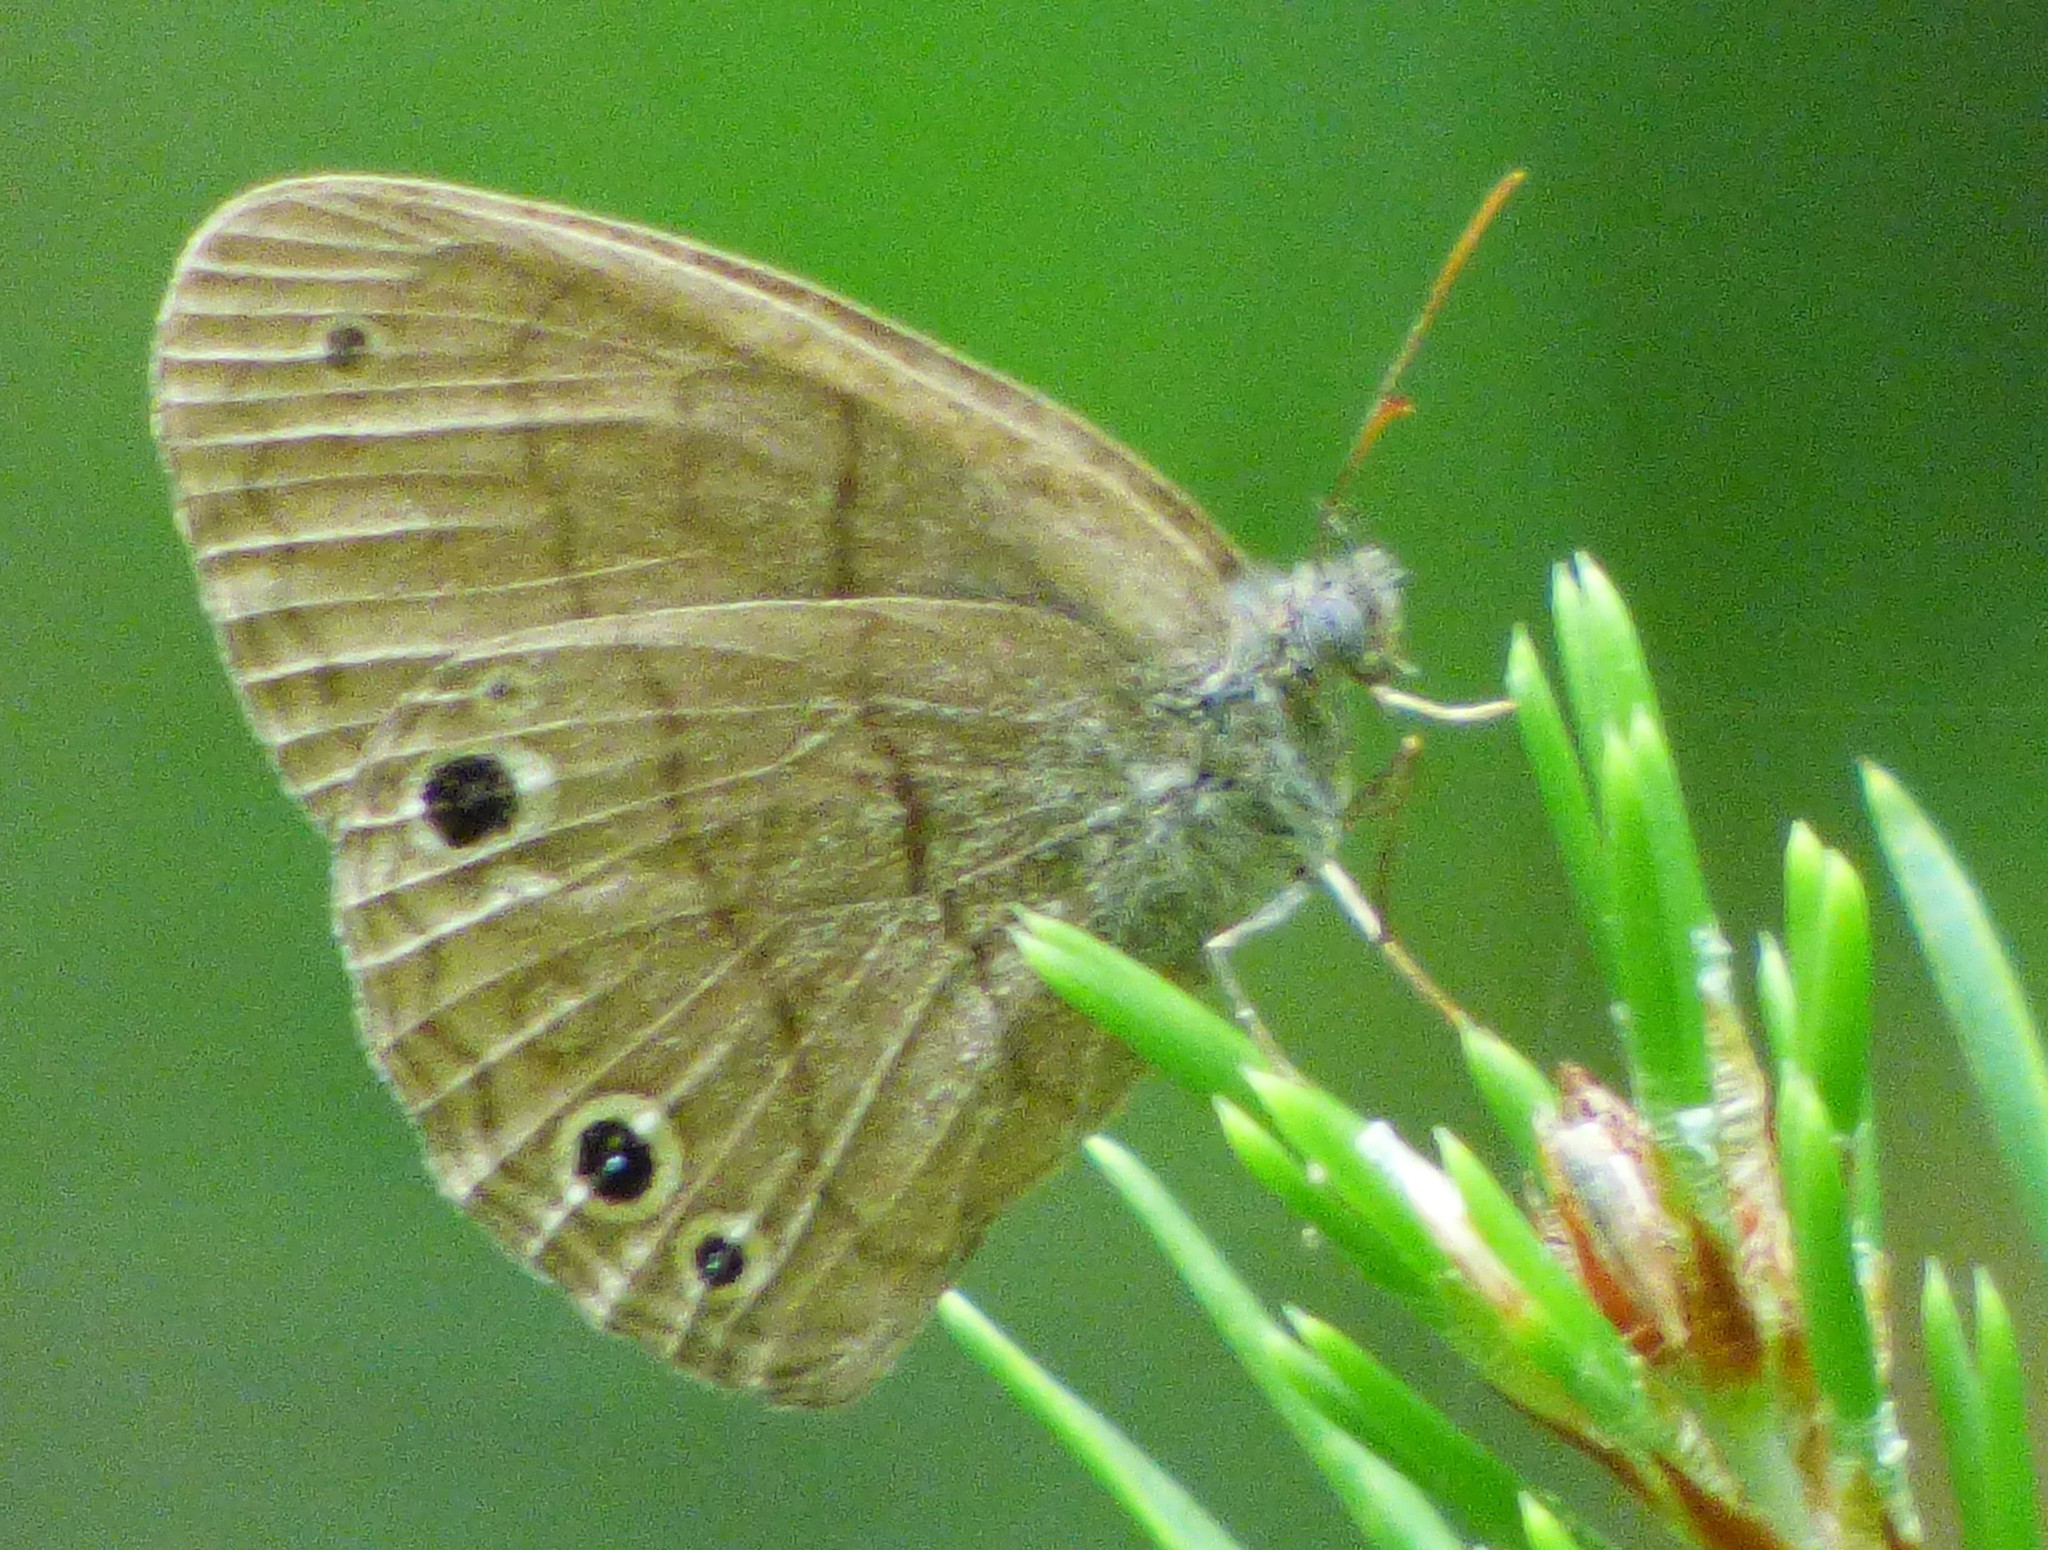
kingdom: Animalia
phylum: Arthropoda
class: Insecta
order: Lepidoptera
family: Nymphalidae
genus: Hermeuptychia
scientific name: Hermeuptychia hermes
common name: Hermes satyr
